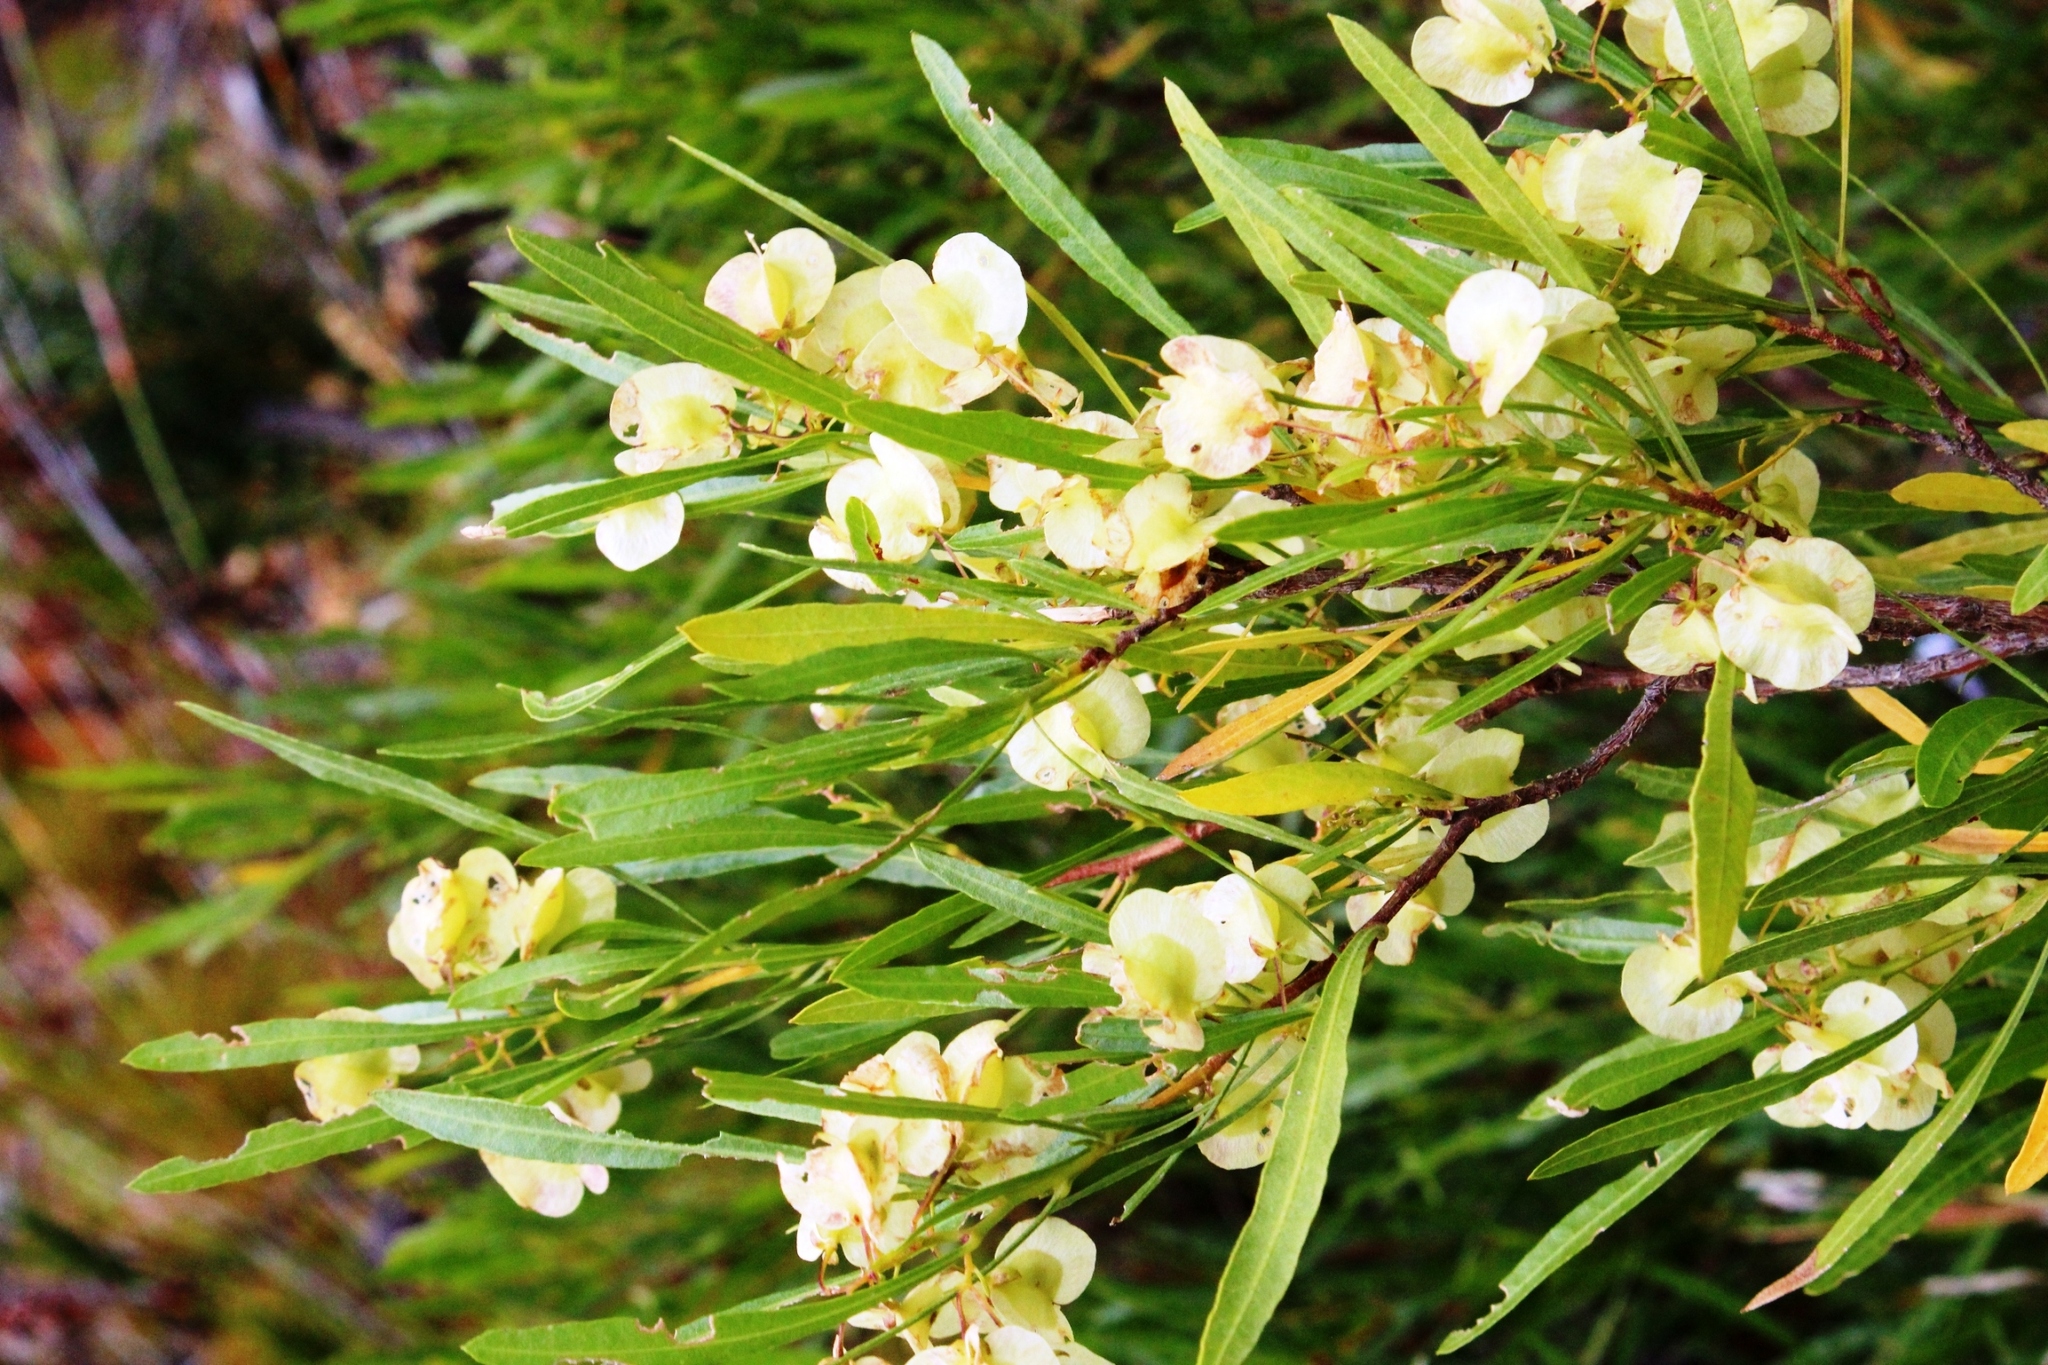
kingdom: Plantae
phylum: Tracheophyta
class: Magnoliopsida
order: Sapindales
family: Sapindaceae
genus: Dodonaea
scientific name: Dodonaea viscosa
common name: Hopbush
